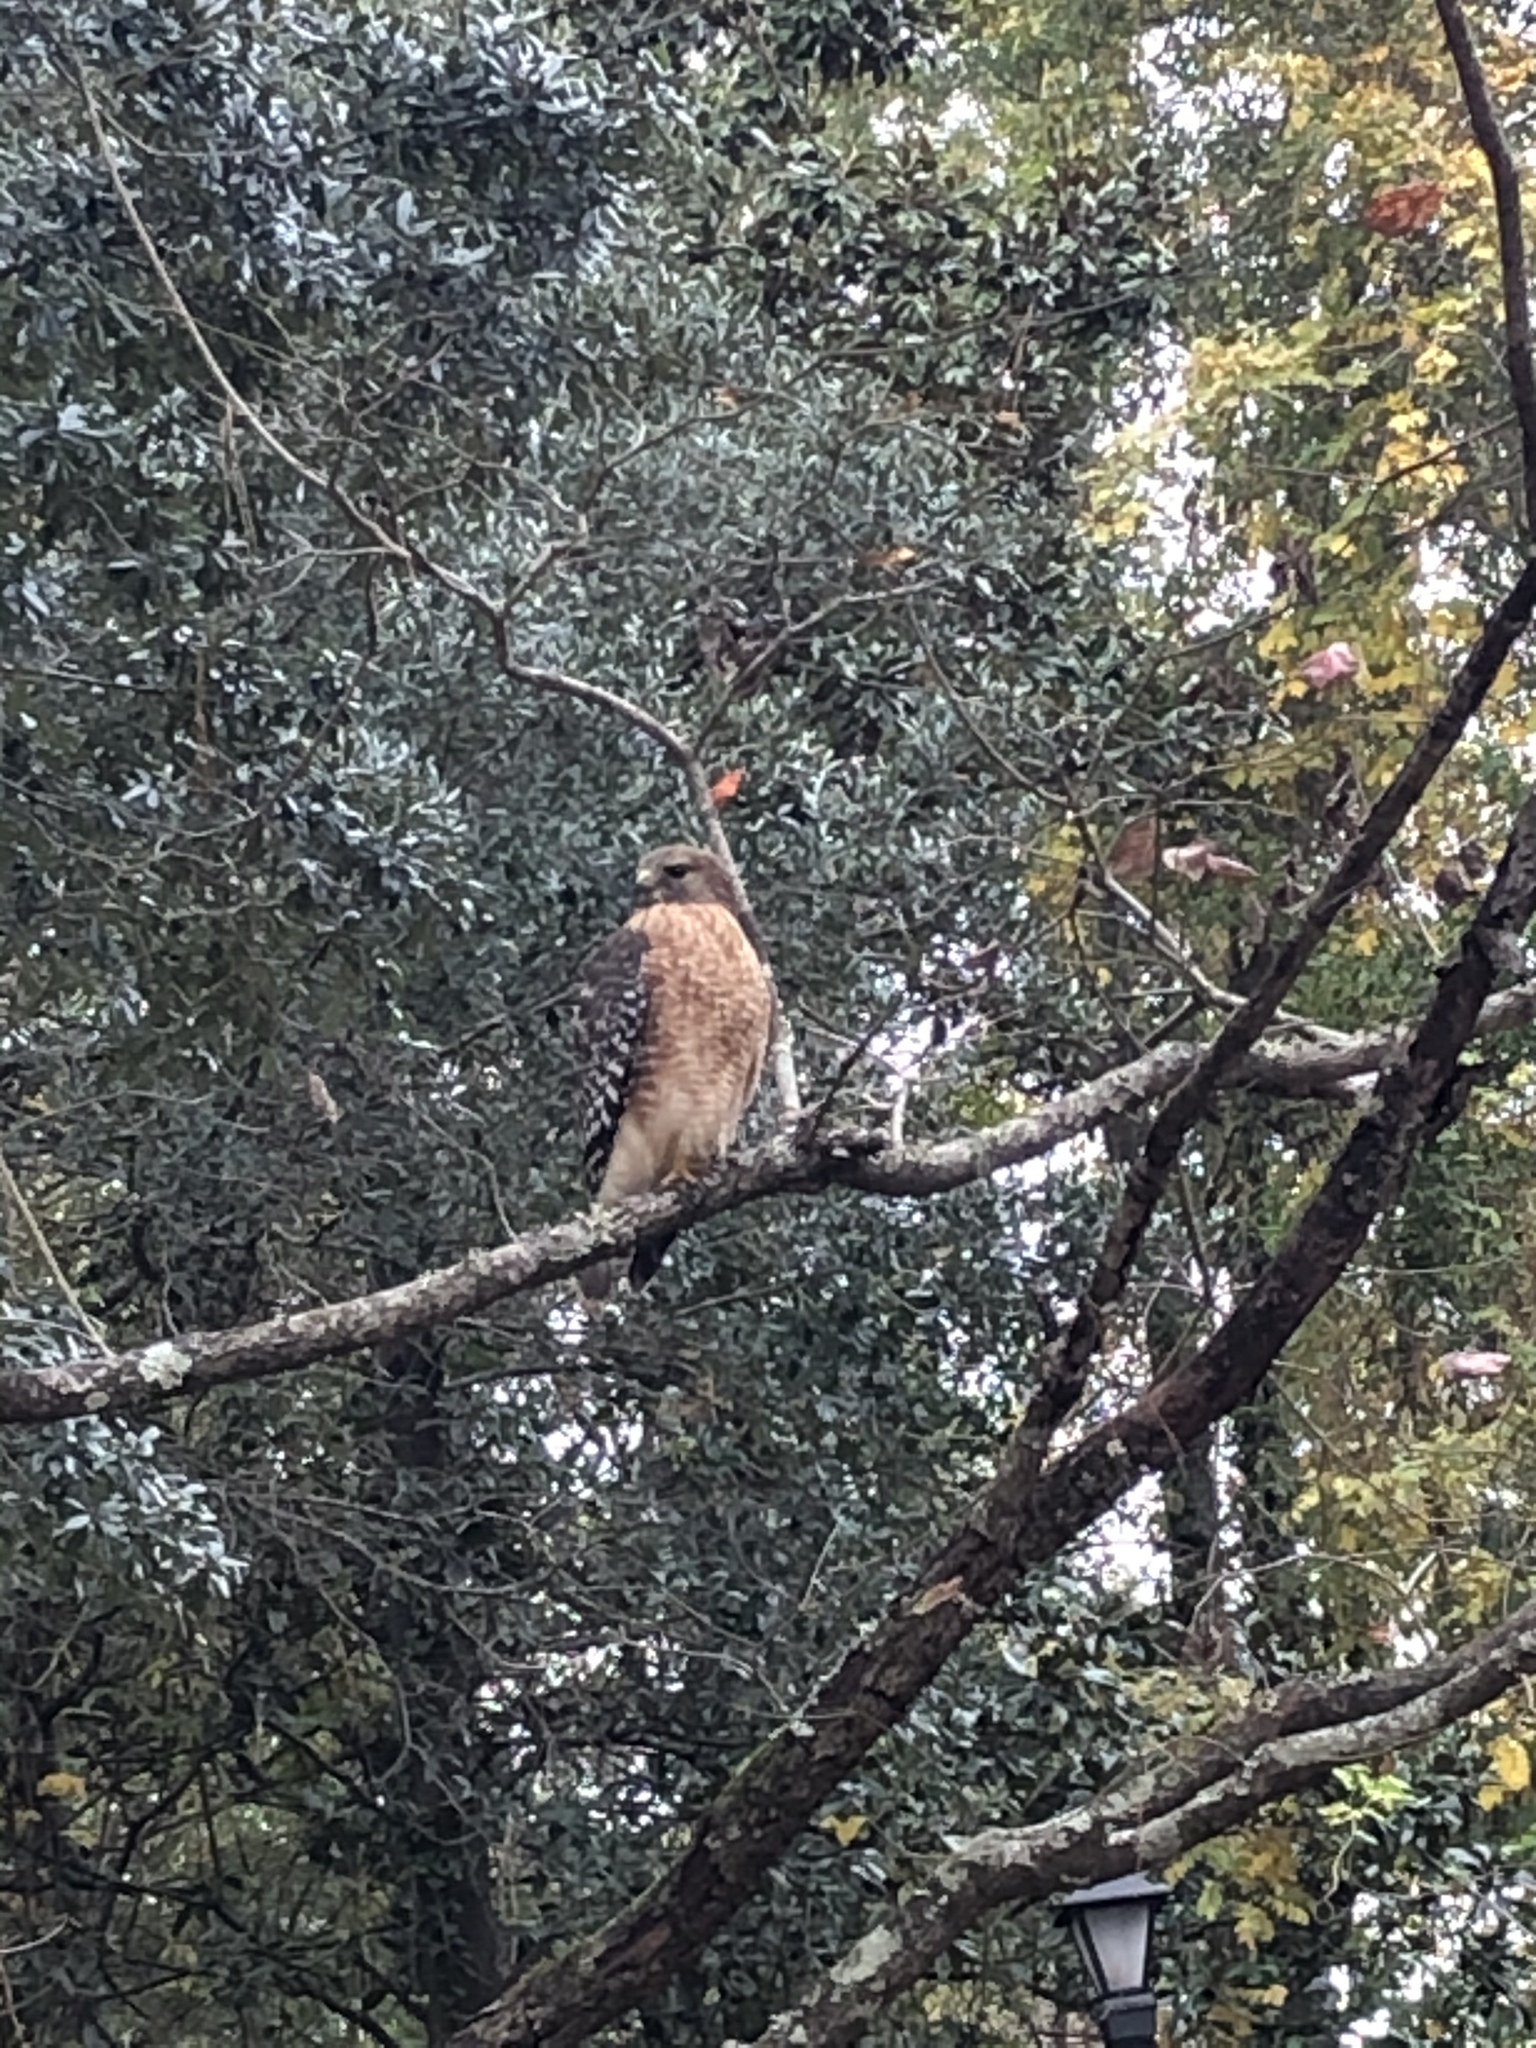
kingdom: Animalia
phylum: Chordata
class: Aves
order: Accipitriformes
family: Accipitridae
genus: Buteo
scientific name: Buteo lineatus
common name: Red-shouldered hawk
